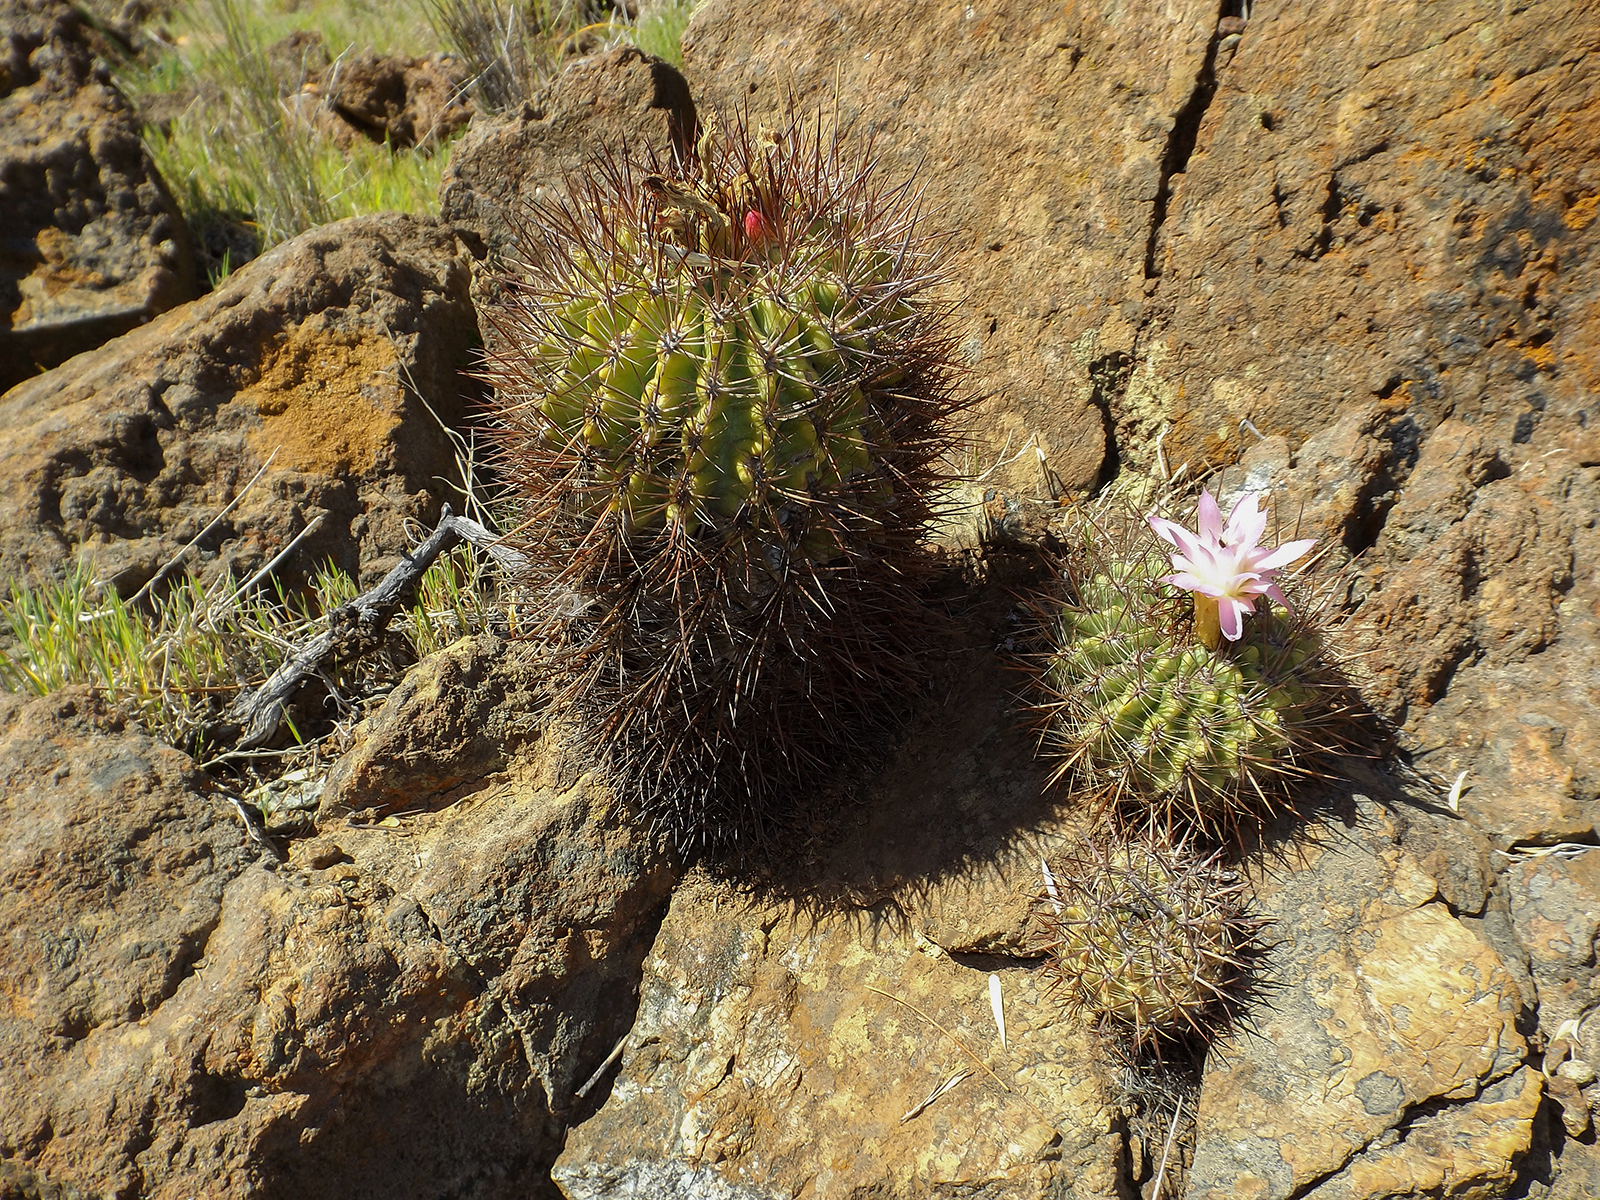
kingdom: Plantae
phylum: Tracheophyta
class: Magnoliopsida
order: Caryophyllales
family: Cactaceae
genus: Eriosyce
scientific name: Eriosyce subgibbosa
